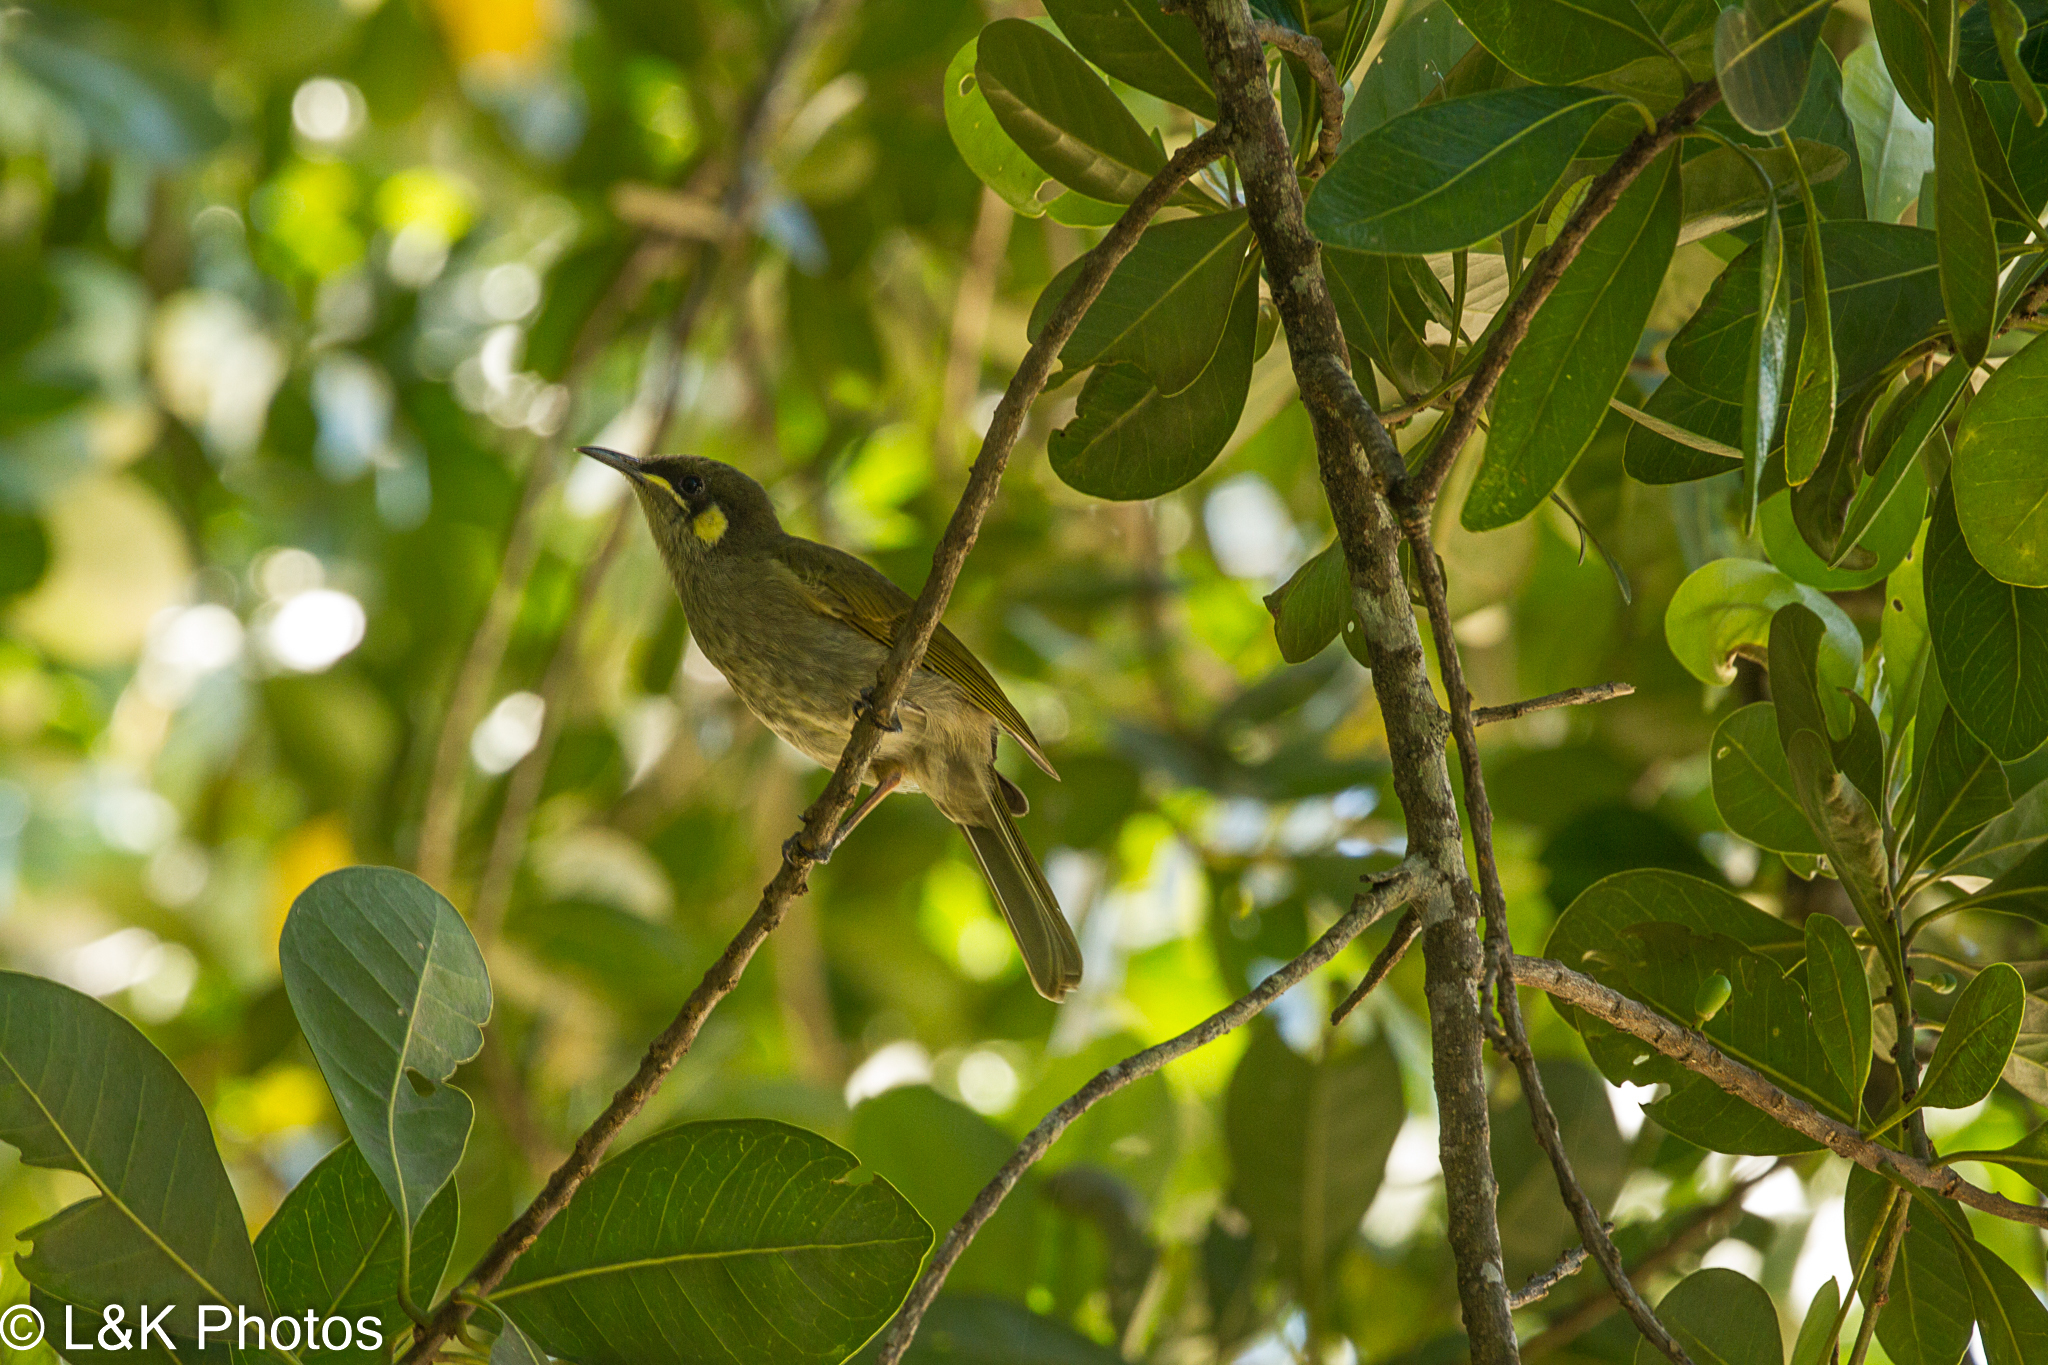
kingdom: Animalia
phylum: Chordata
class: Aves
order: Passeriformes
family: Meliphagidae
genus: Meliphaga
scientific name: Meliphaga lewinii
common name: Lewin's honeyeater
